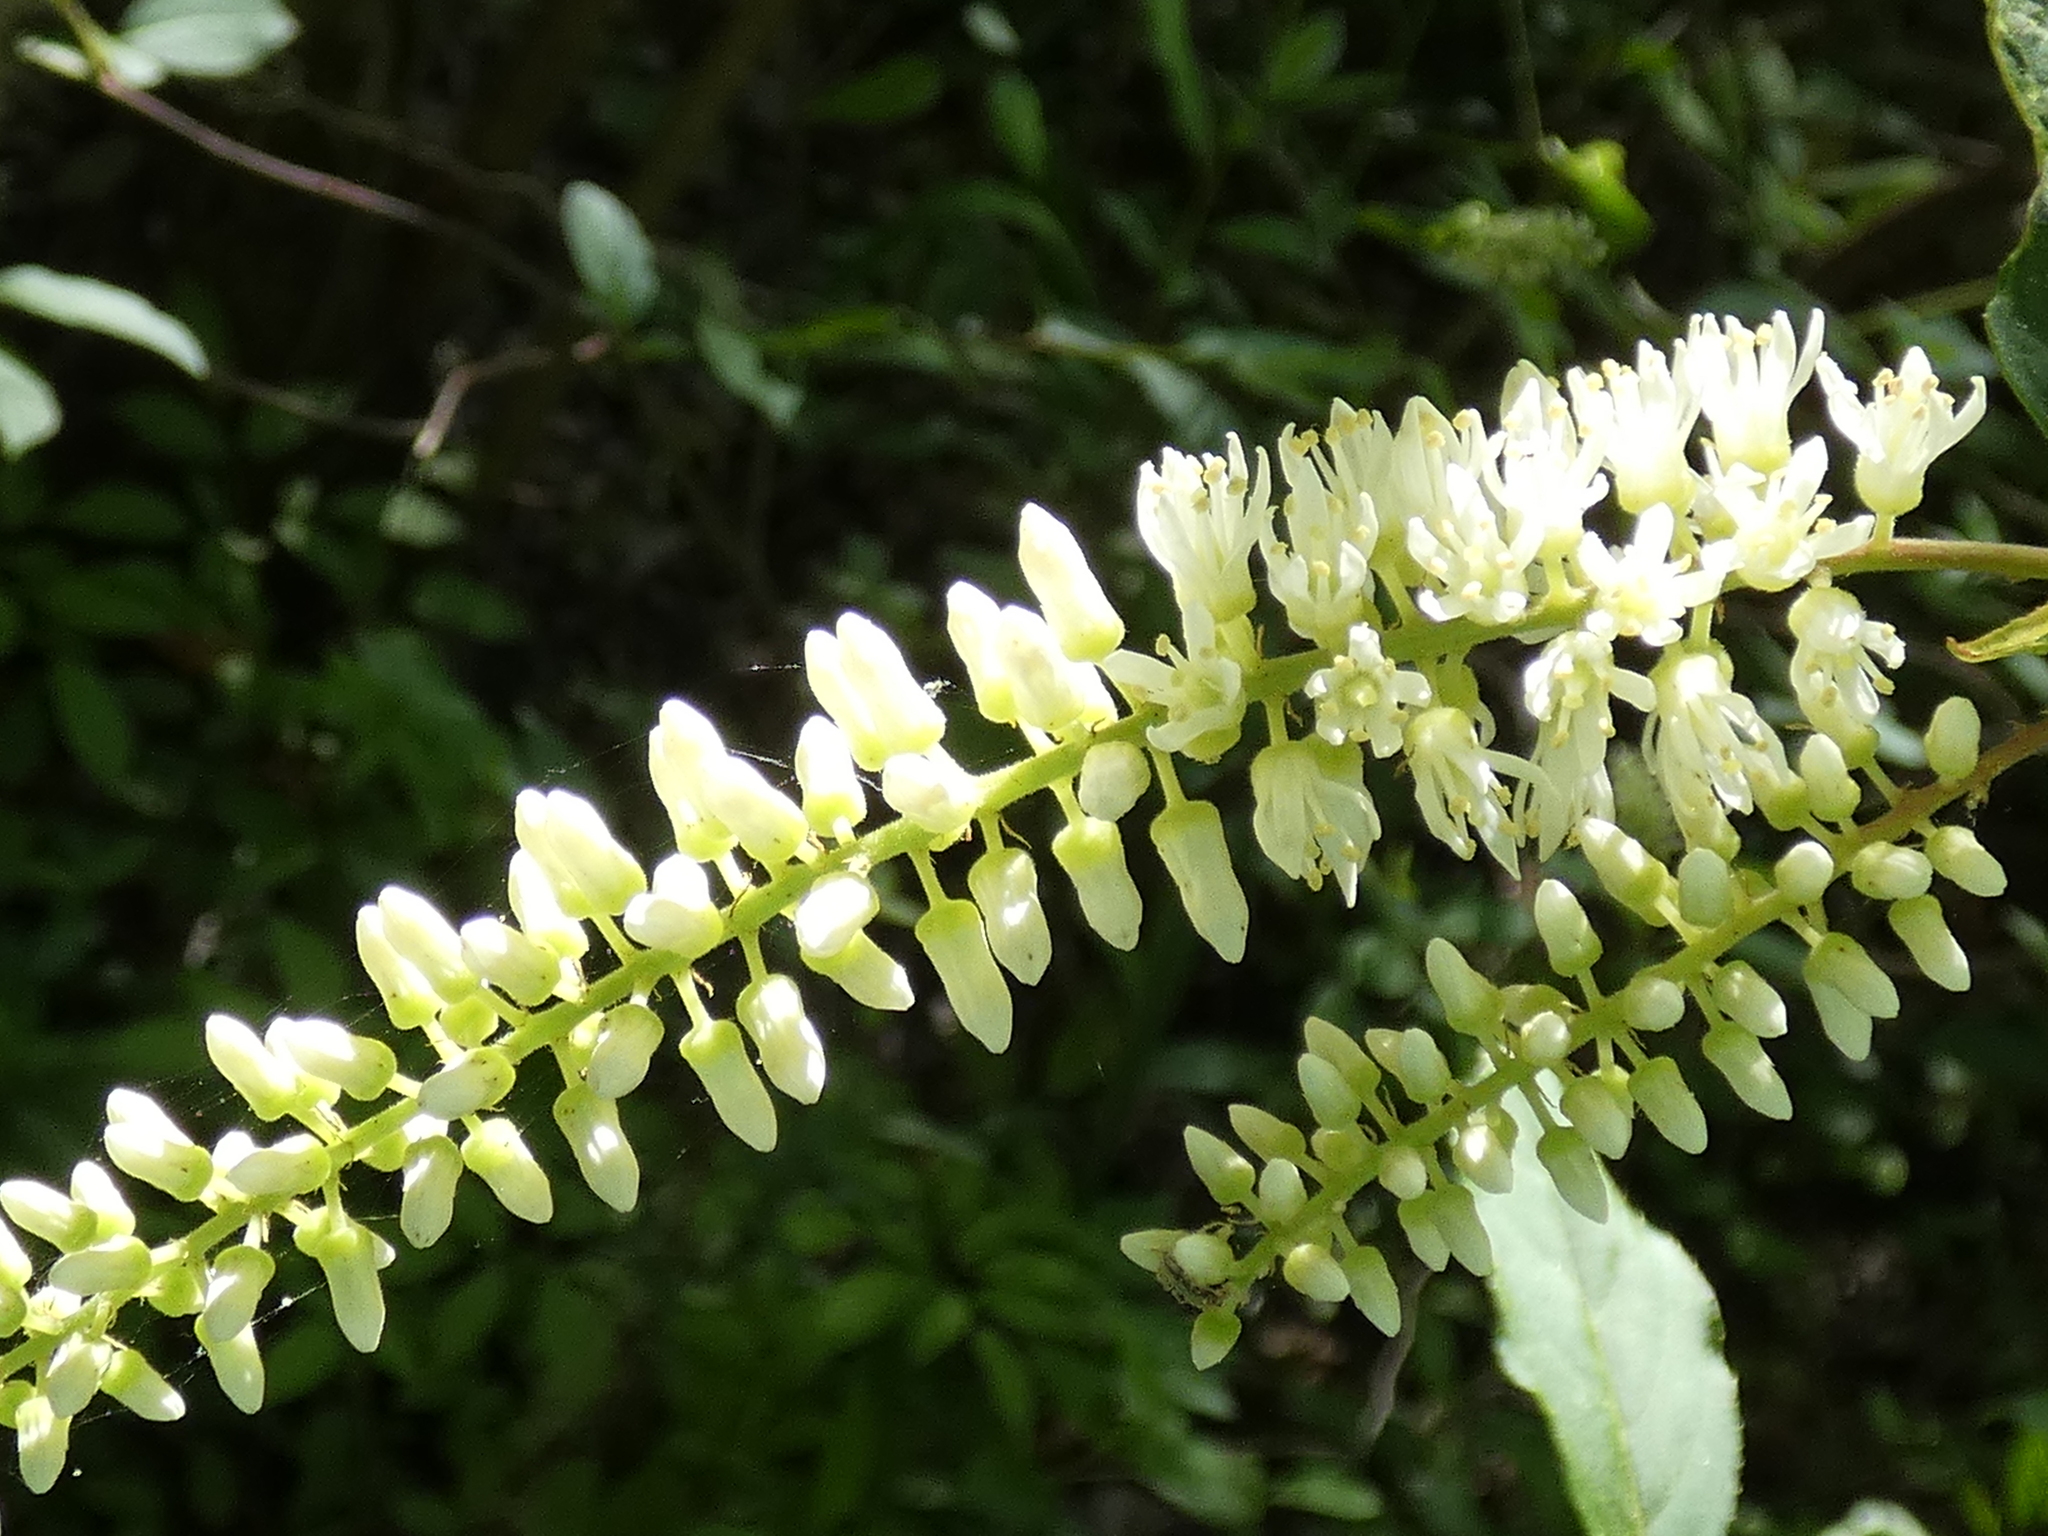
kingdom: Plantae
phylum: Tracheophyta
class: Magnoliopsida
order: Saxifragales
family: Iteaceae
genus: Itea
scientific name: Itea virginica
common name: Sweetspire
